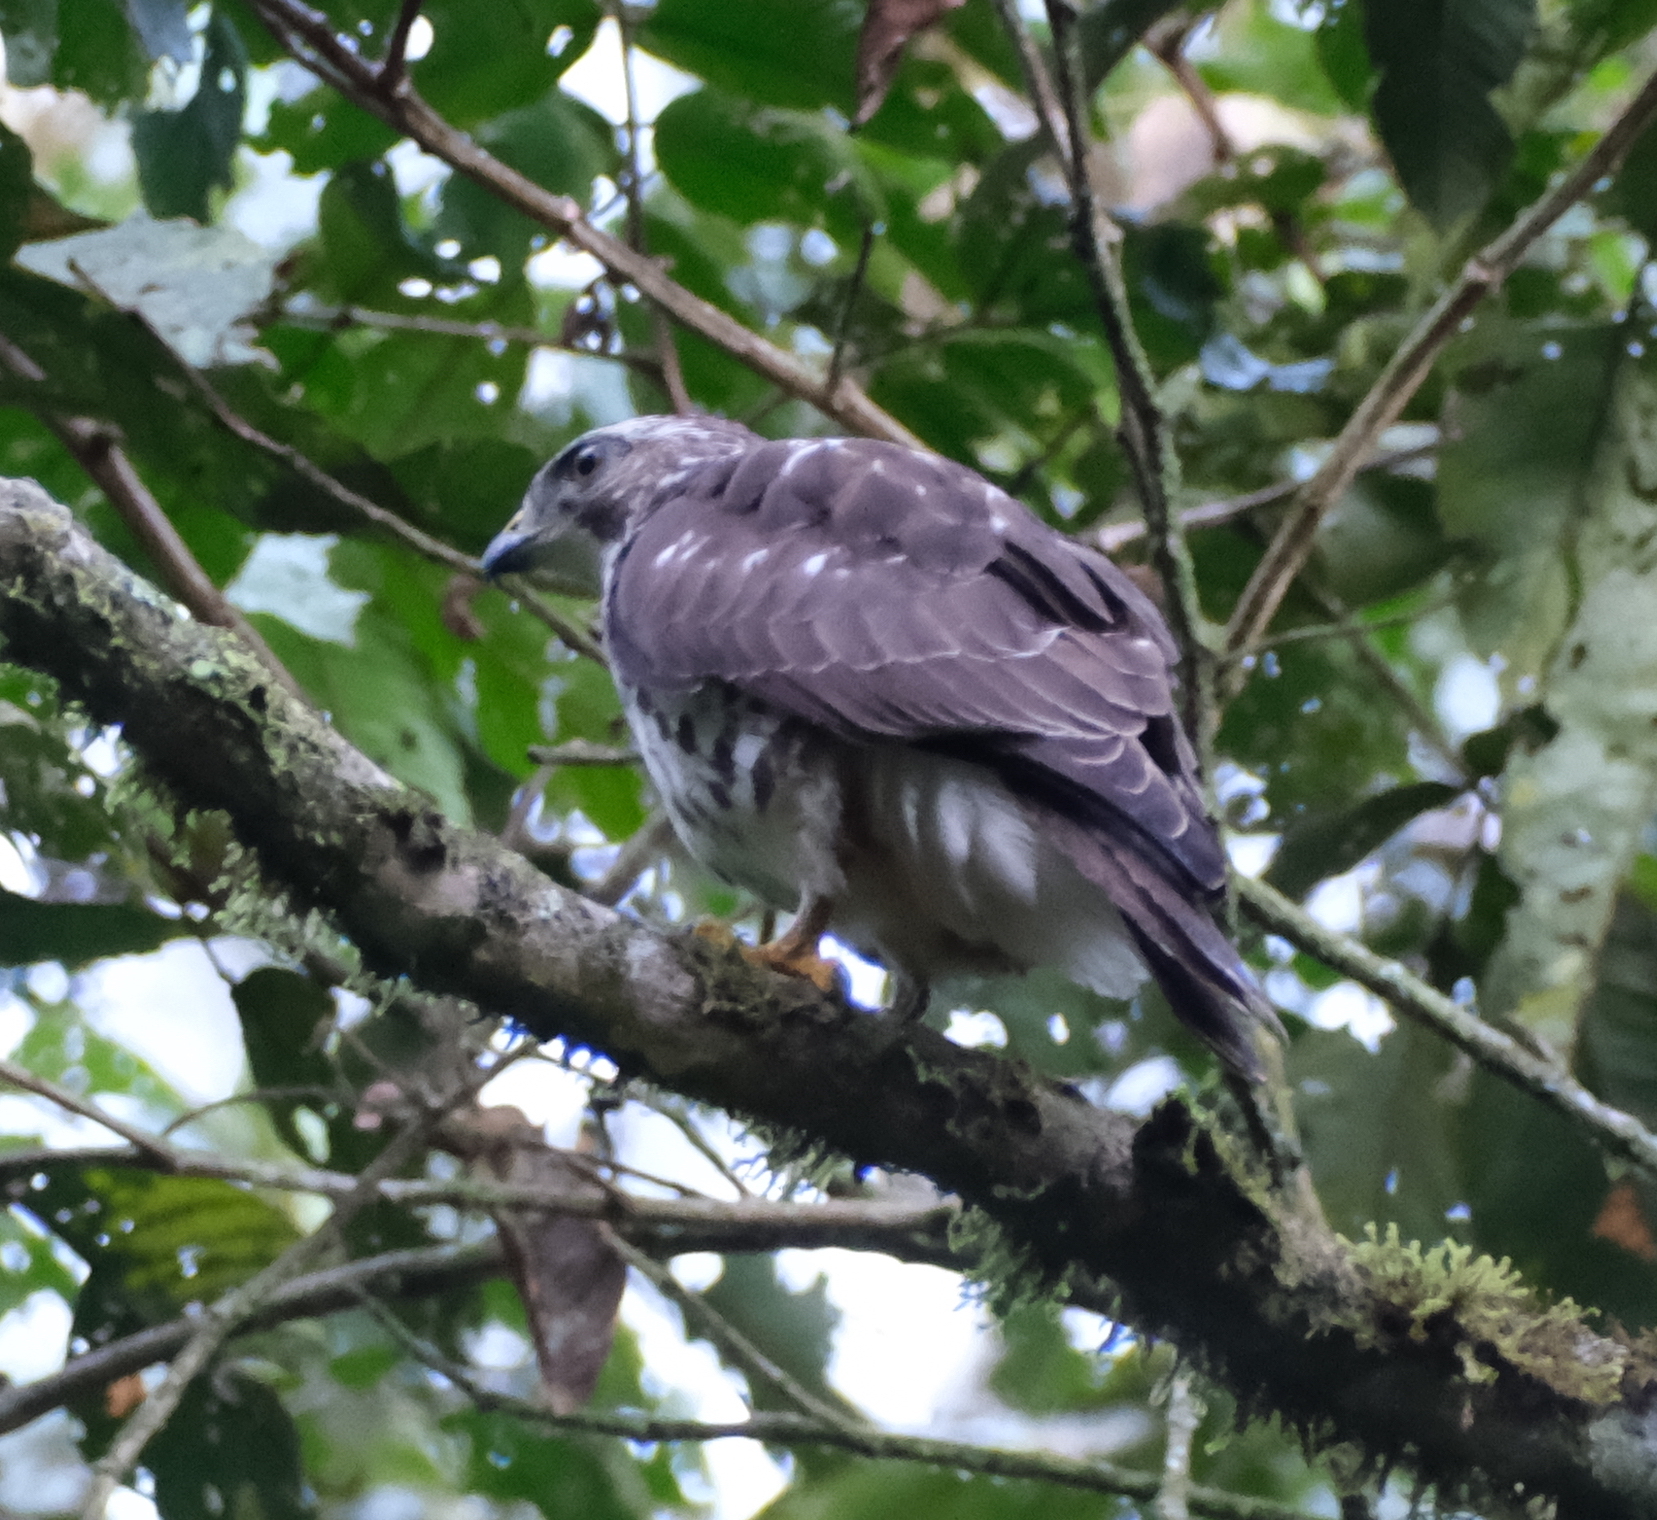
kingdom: Animalia
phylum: Chordata
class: Aves
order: Accipitriformes
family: Accipitridae
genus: Buteo
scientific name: Buteo platypterus
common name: Broad-winged hawk
